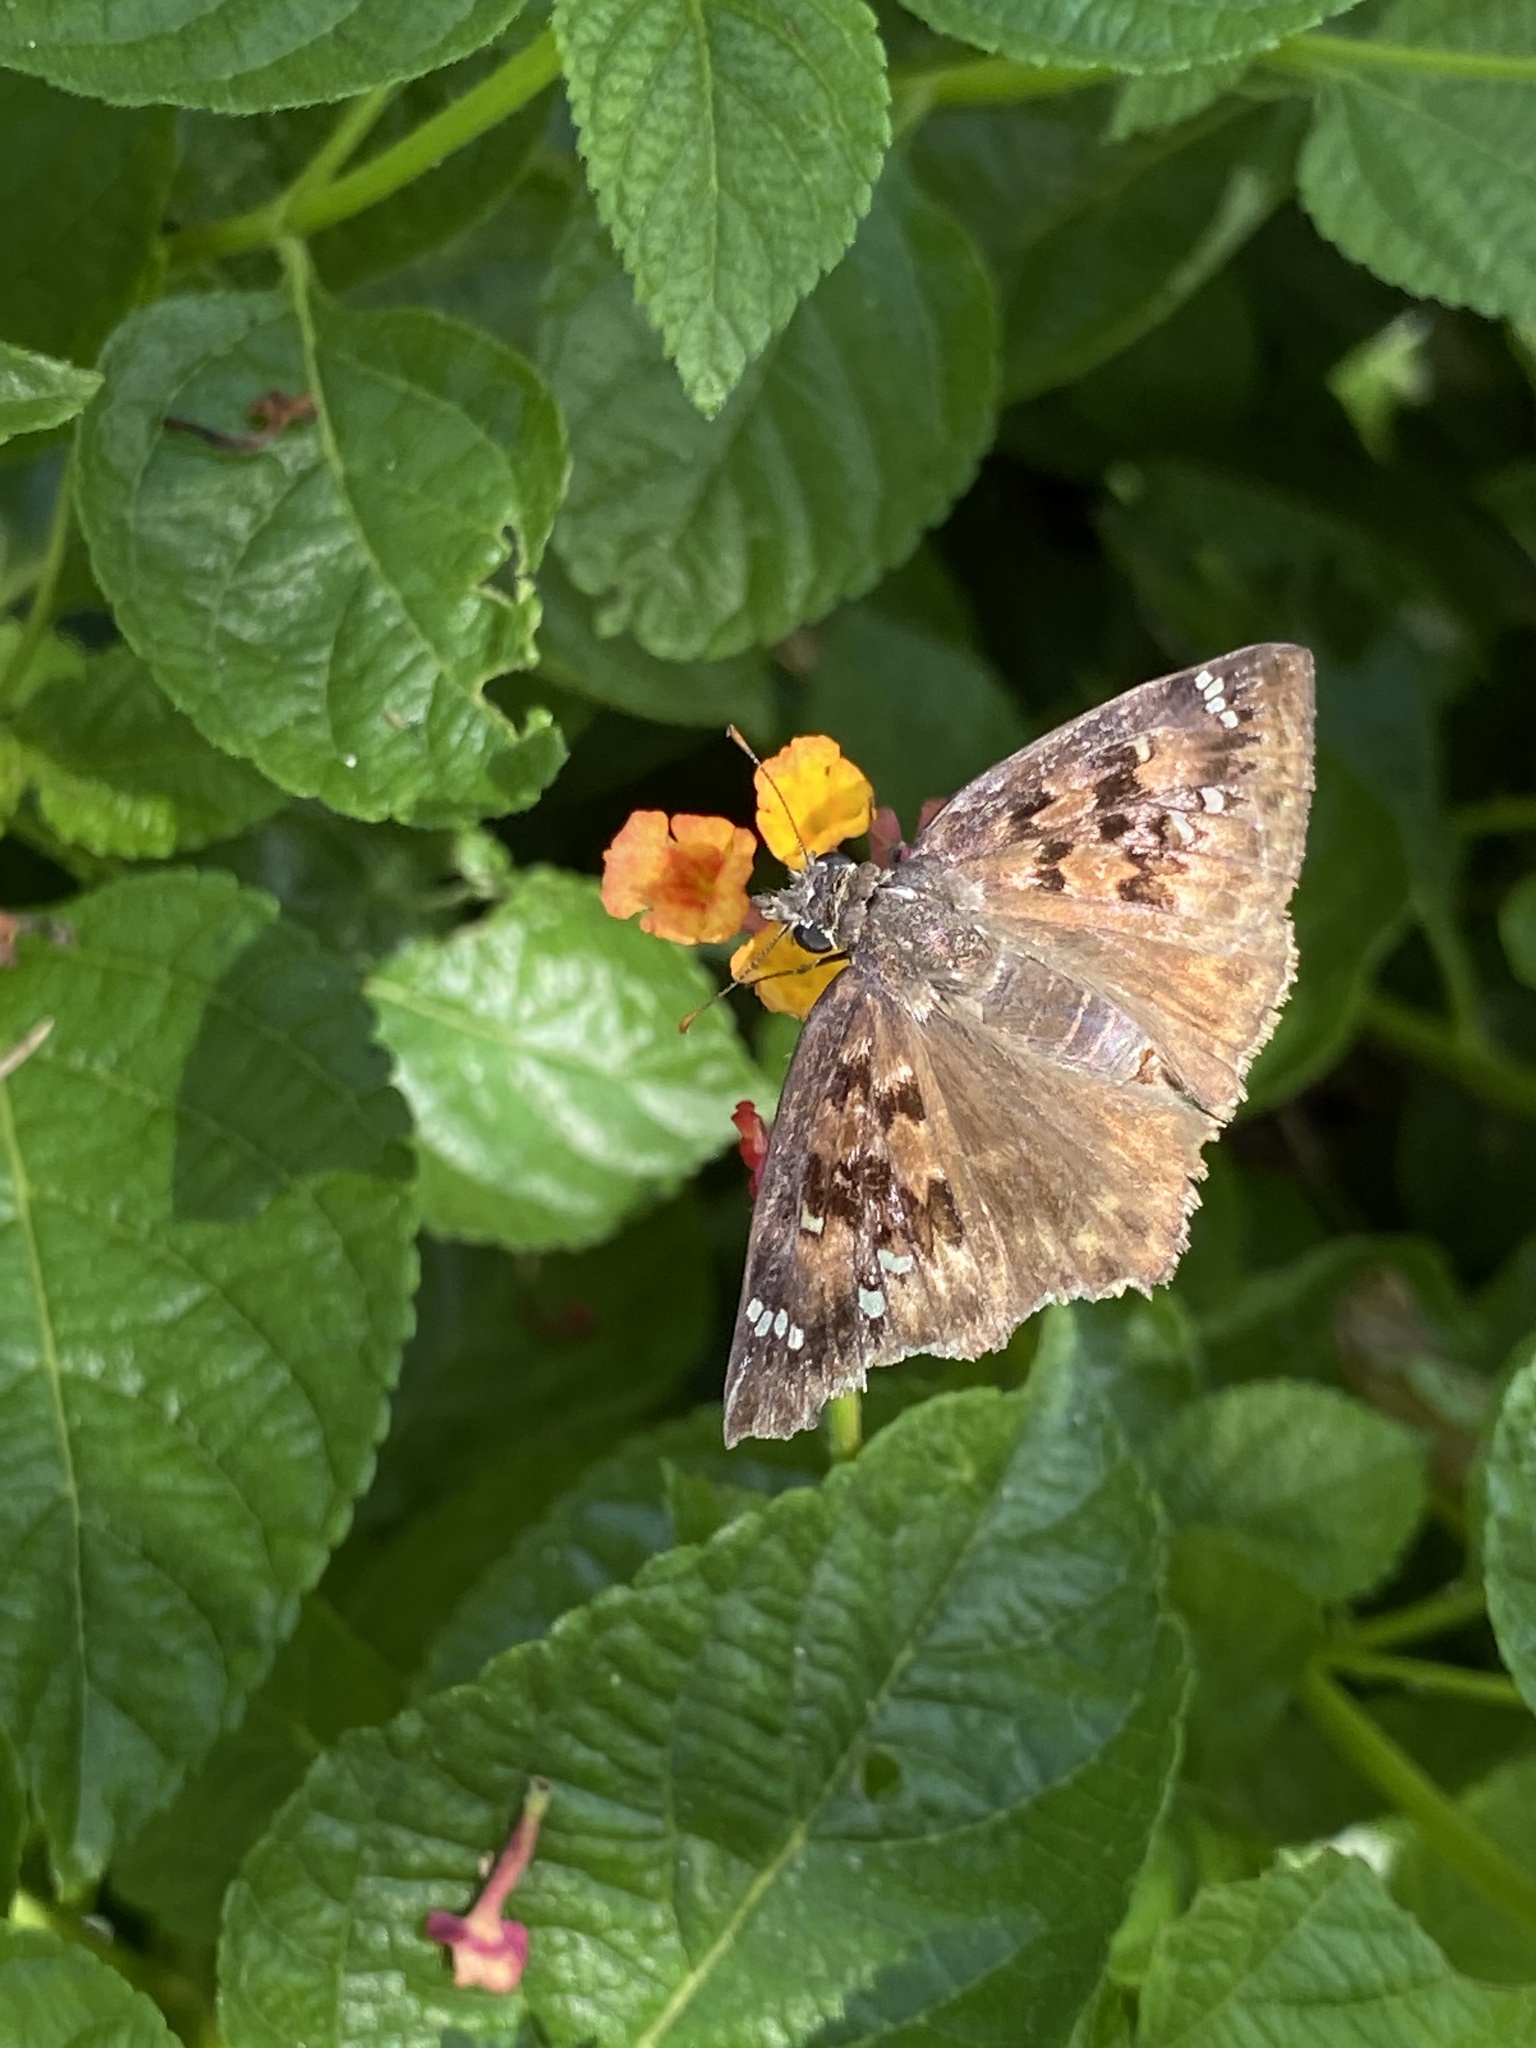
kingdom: Animalia
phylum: Arthropoda
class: Insecta
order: Lepidoptera
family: Hesperiidae
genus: Erynnis
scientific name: Erynnis horatius
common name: Horace's duskywing
